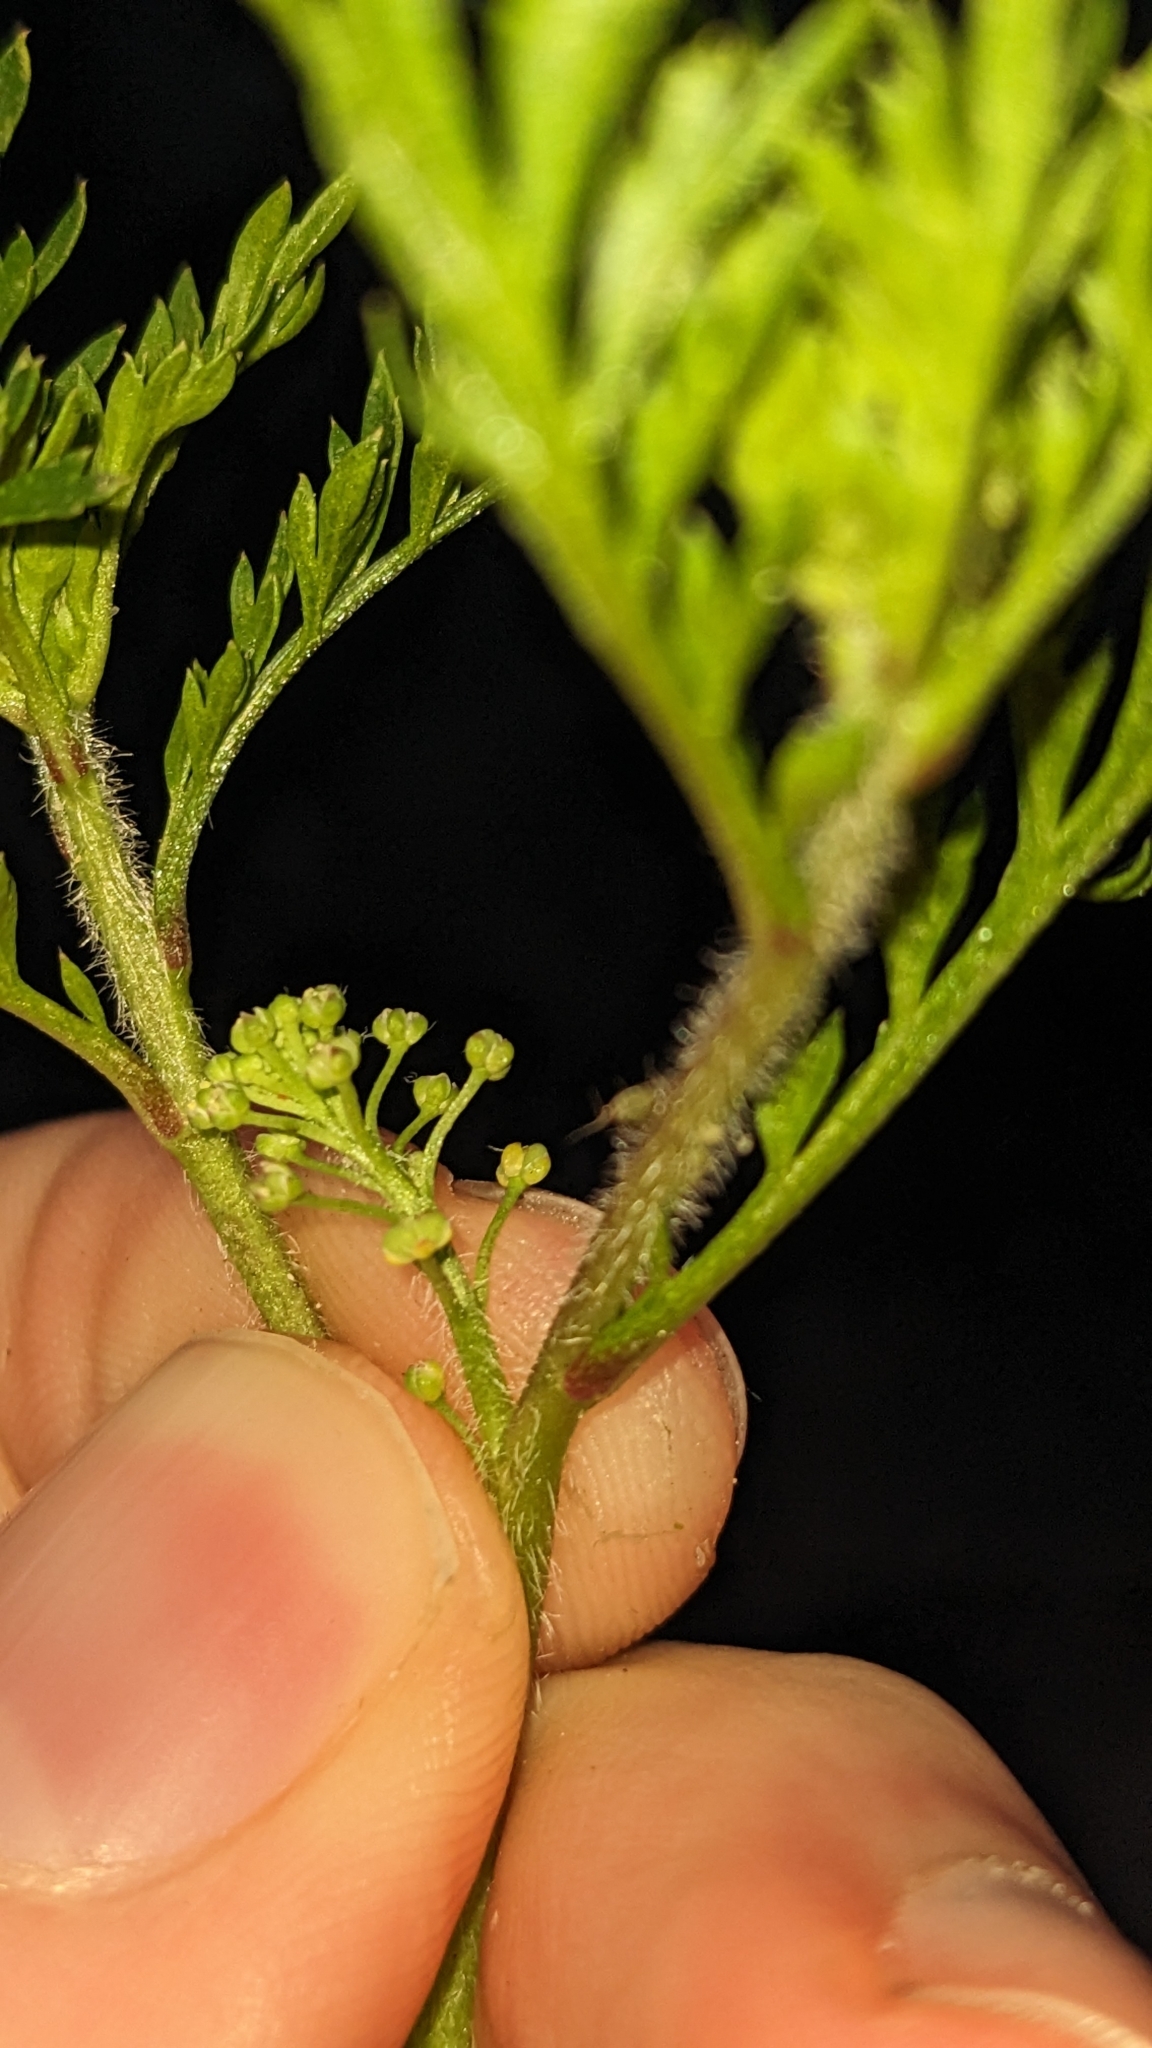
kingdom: Plantae
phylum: Tracheophyta
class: Magnoliopsida
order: Brassicales
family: Brassicaceae
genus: Lepidium
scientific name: Lepidium didymum
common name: Lesser swinecress
